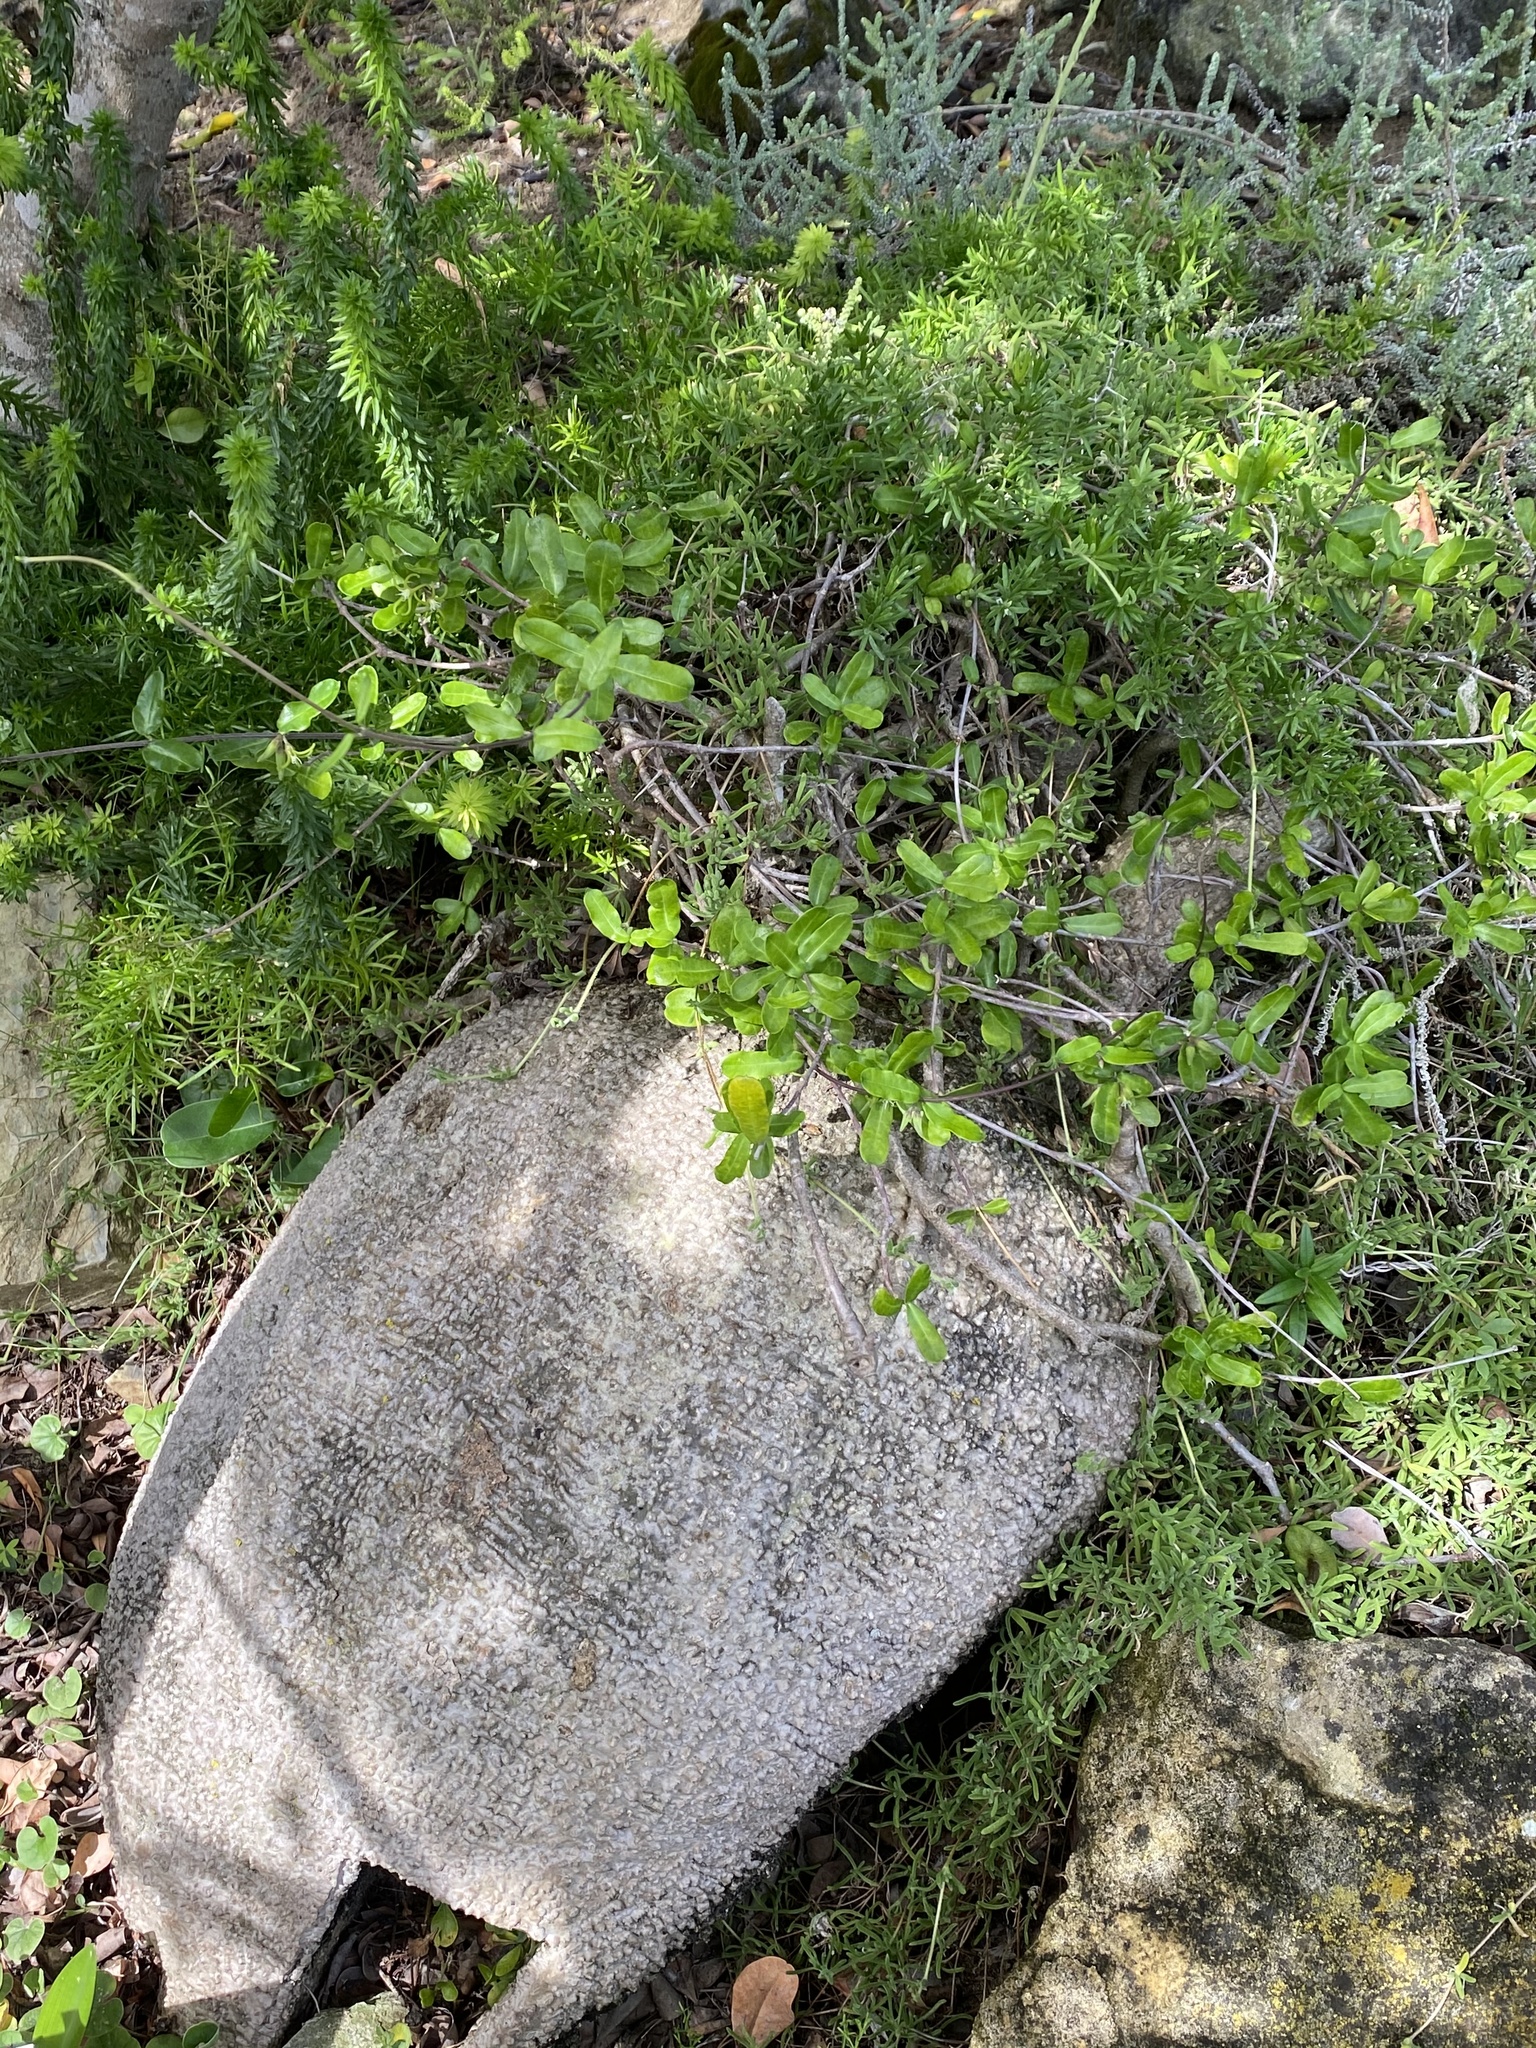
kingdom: Plantae
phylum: Tracheophyta
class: Magnoliopsida
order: Gentianales
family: Apocynaceae
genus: Fockea
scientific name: Fockea edulis
